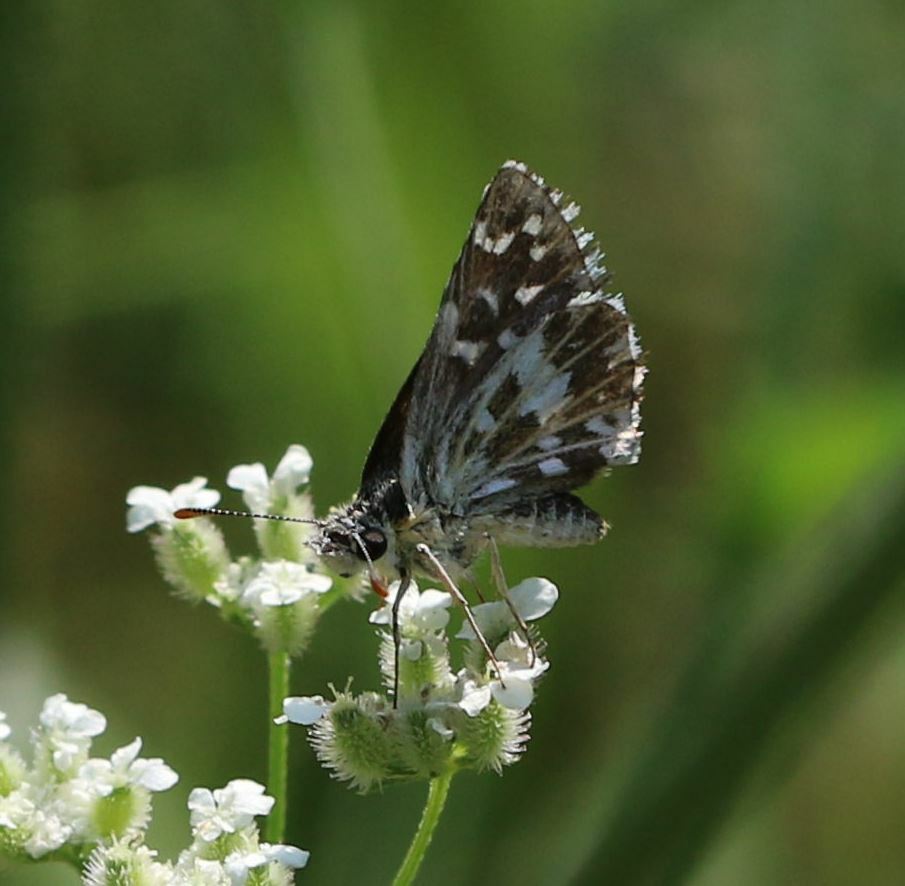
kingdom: Animalia
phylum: Arthropoda
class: Insecta
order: Lepidoptera
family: Hesperiidae
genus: Pyrgus
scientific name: Pyrgus malvoides
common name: Southern grizzled skipper
